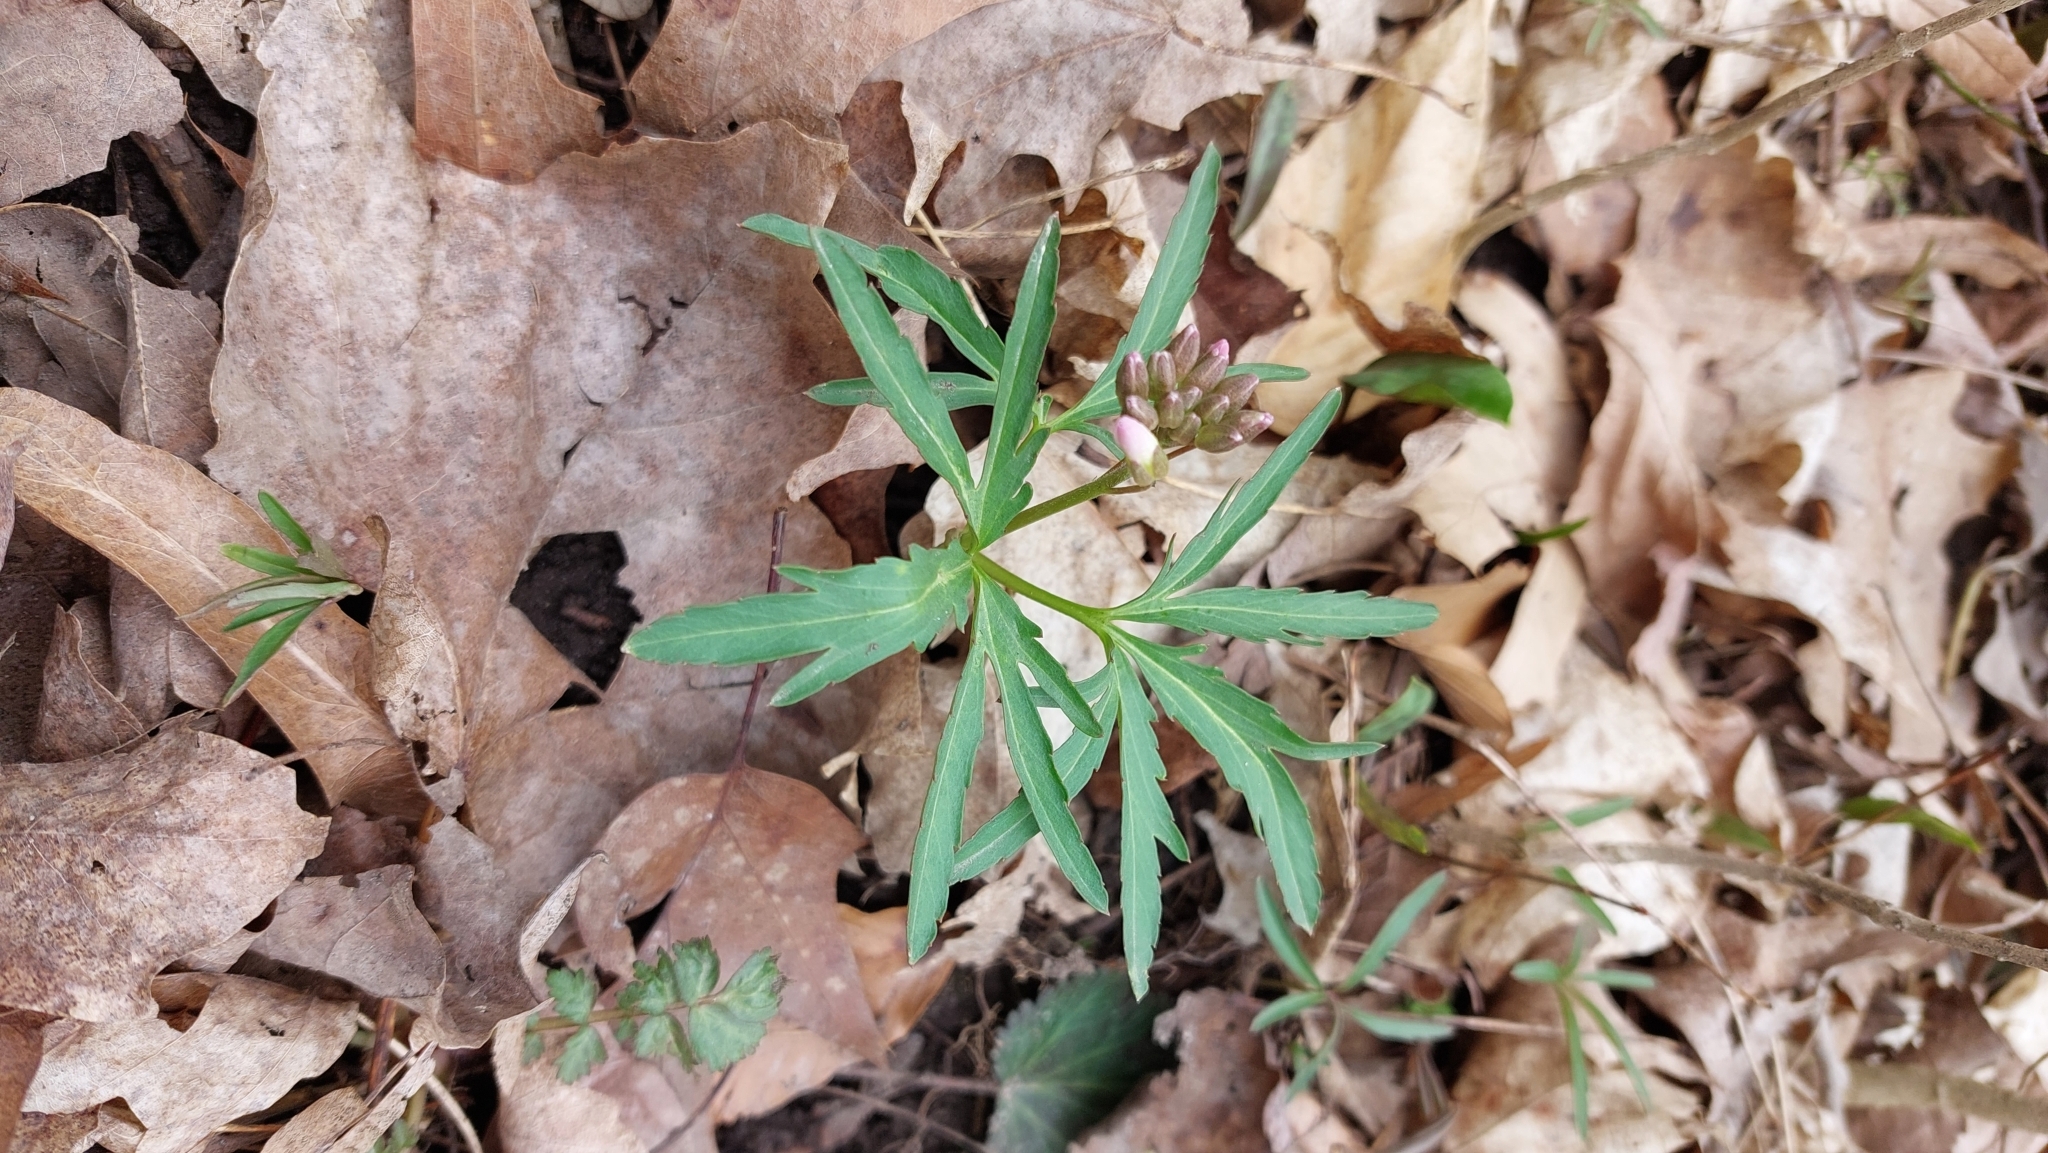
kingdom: Plantae
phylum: Tracheophyta
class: Magnoliopsida
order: Brassicales
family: Brassicaceae
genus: Cardamine
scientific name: Cardamine concatenata
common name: Cut-leaf toothcup
